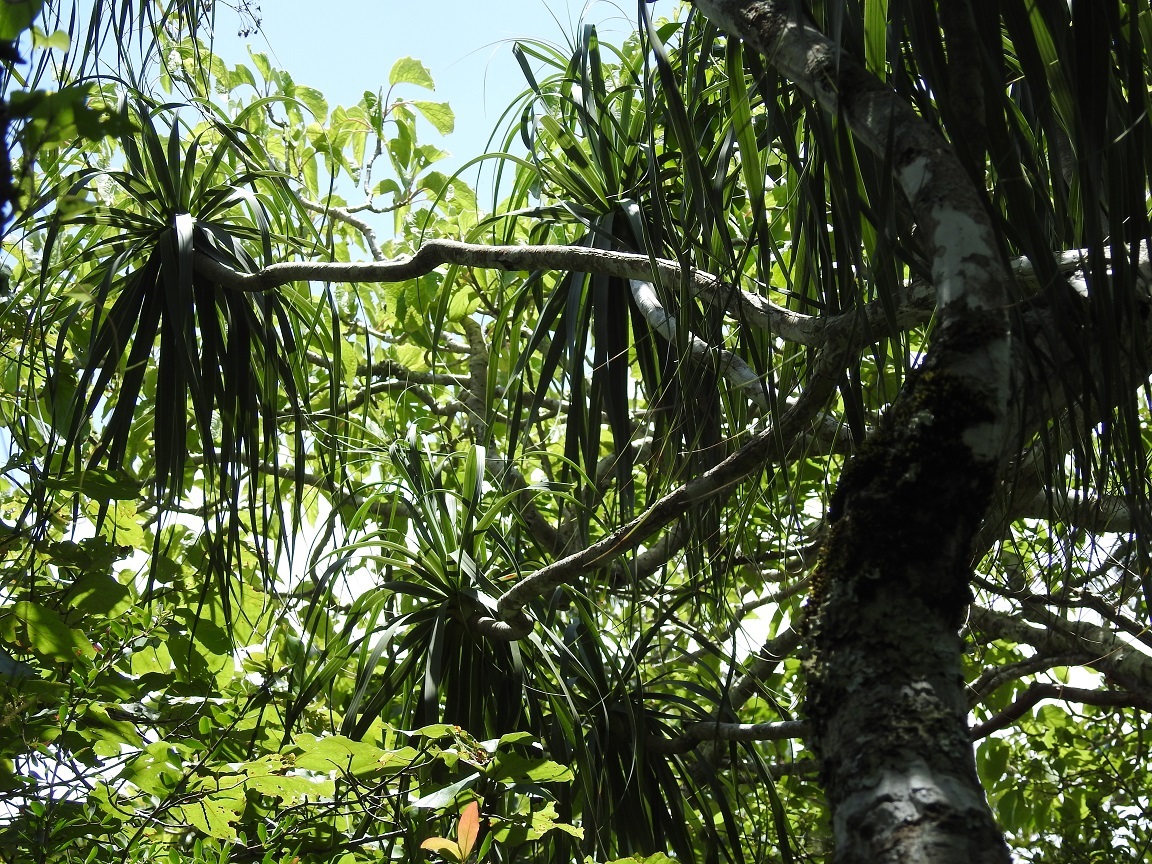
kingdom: Plantae
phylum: Tracheophyta
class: Liliopsida
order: Asparagales
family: Asparagaceae
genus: Beaucarnea
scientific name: Beaucarnea goldmanii
